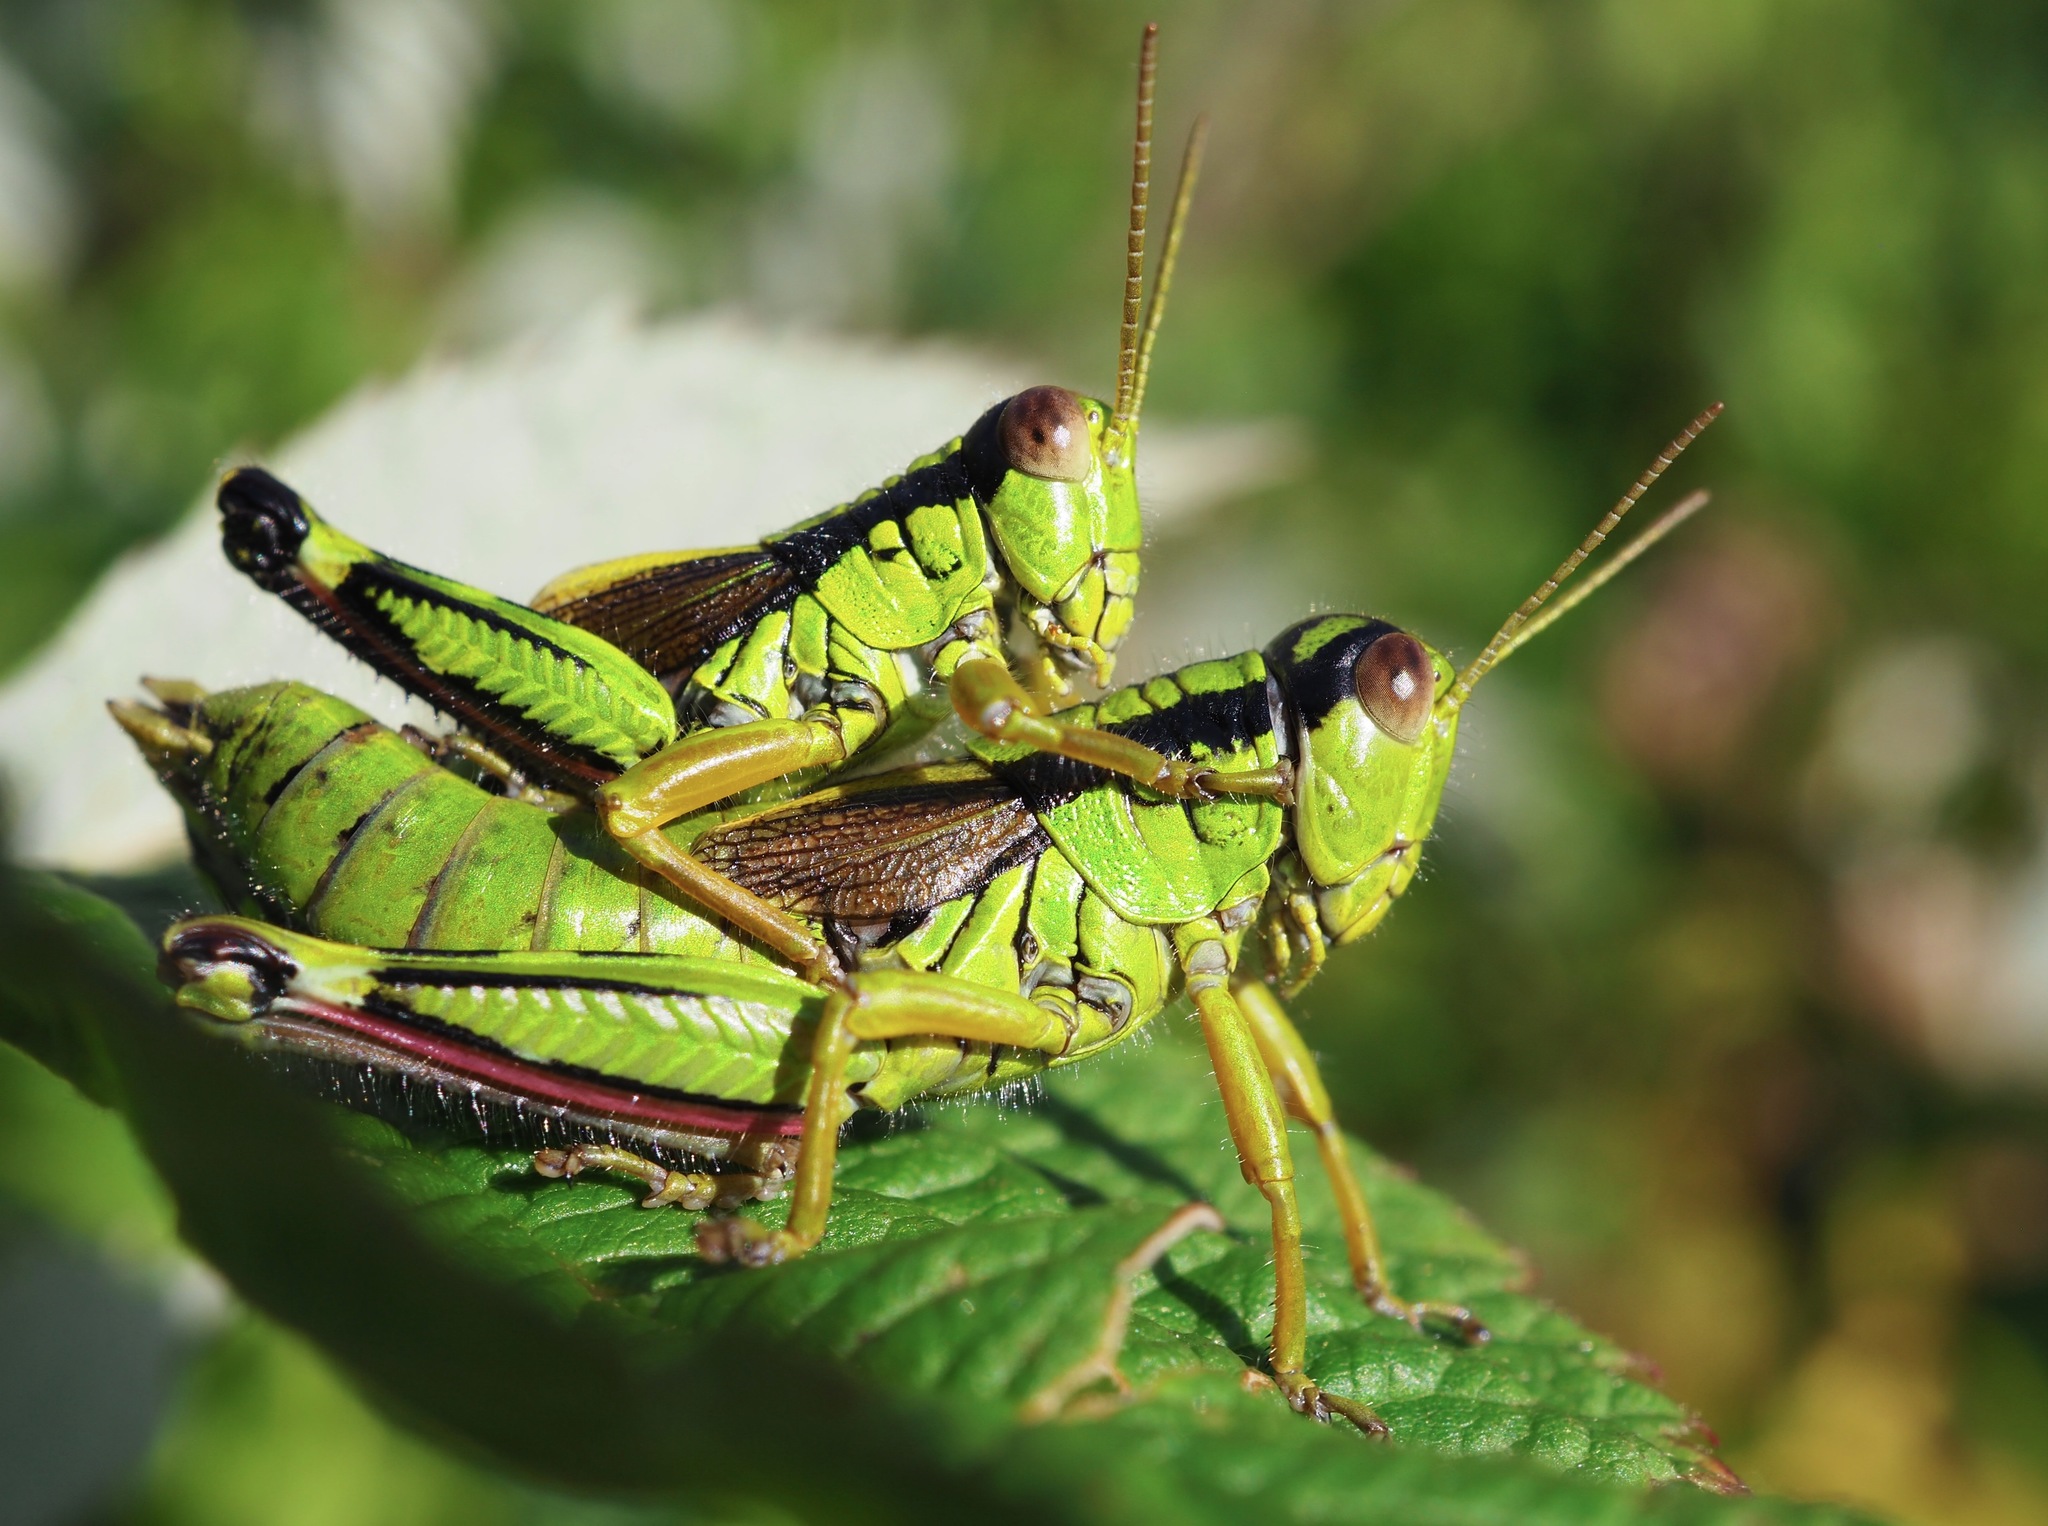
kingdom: Animalia
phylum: Arthropoda
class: Insecta
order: Orthoptera
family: Acrididae
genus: Miramella
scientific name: Miramella frinias
